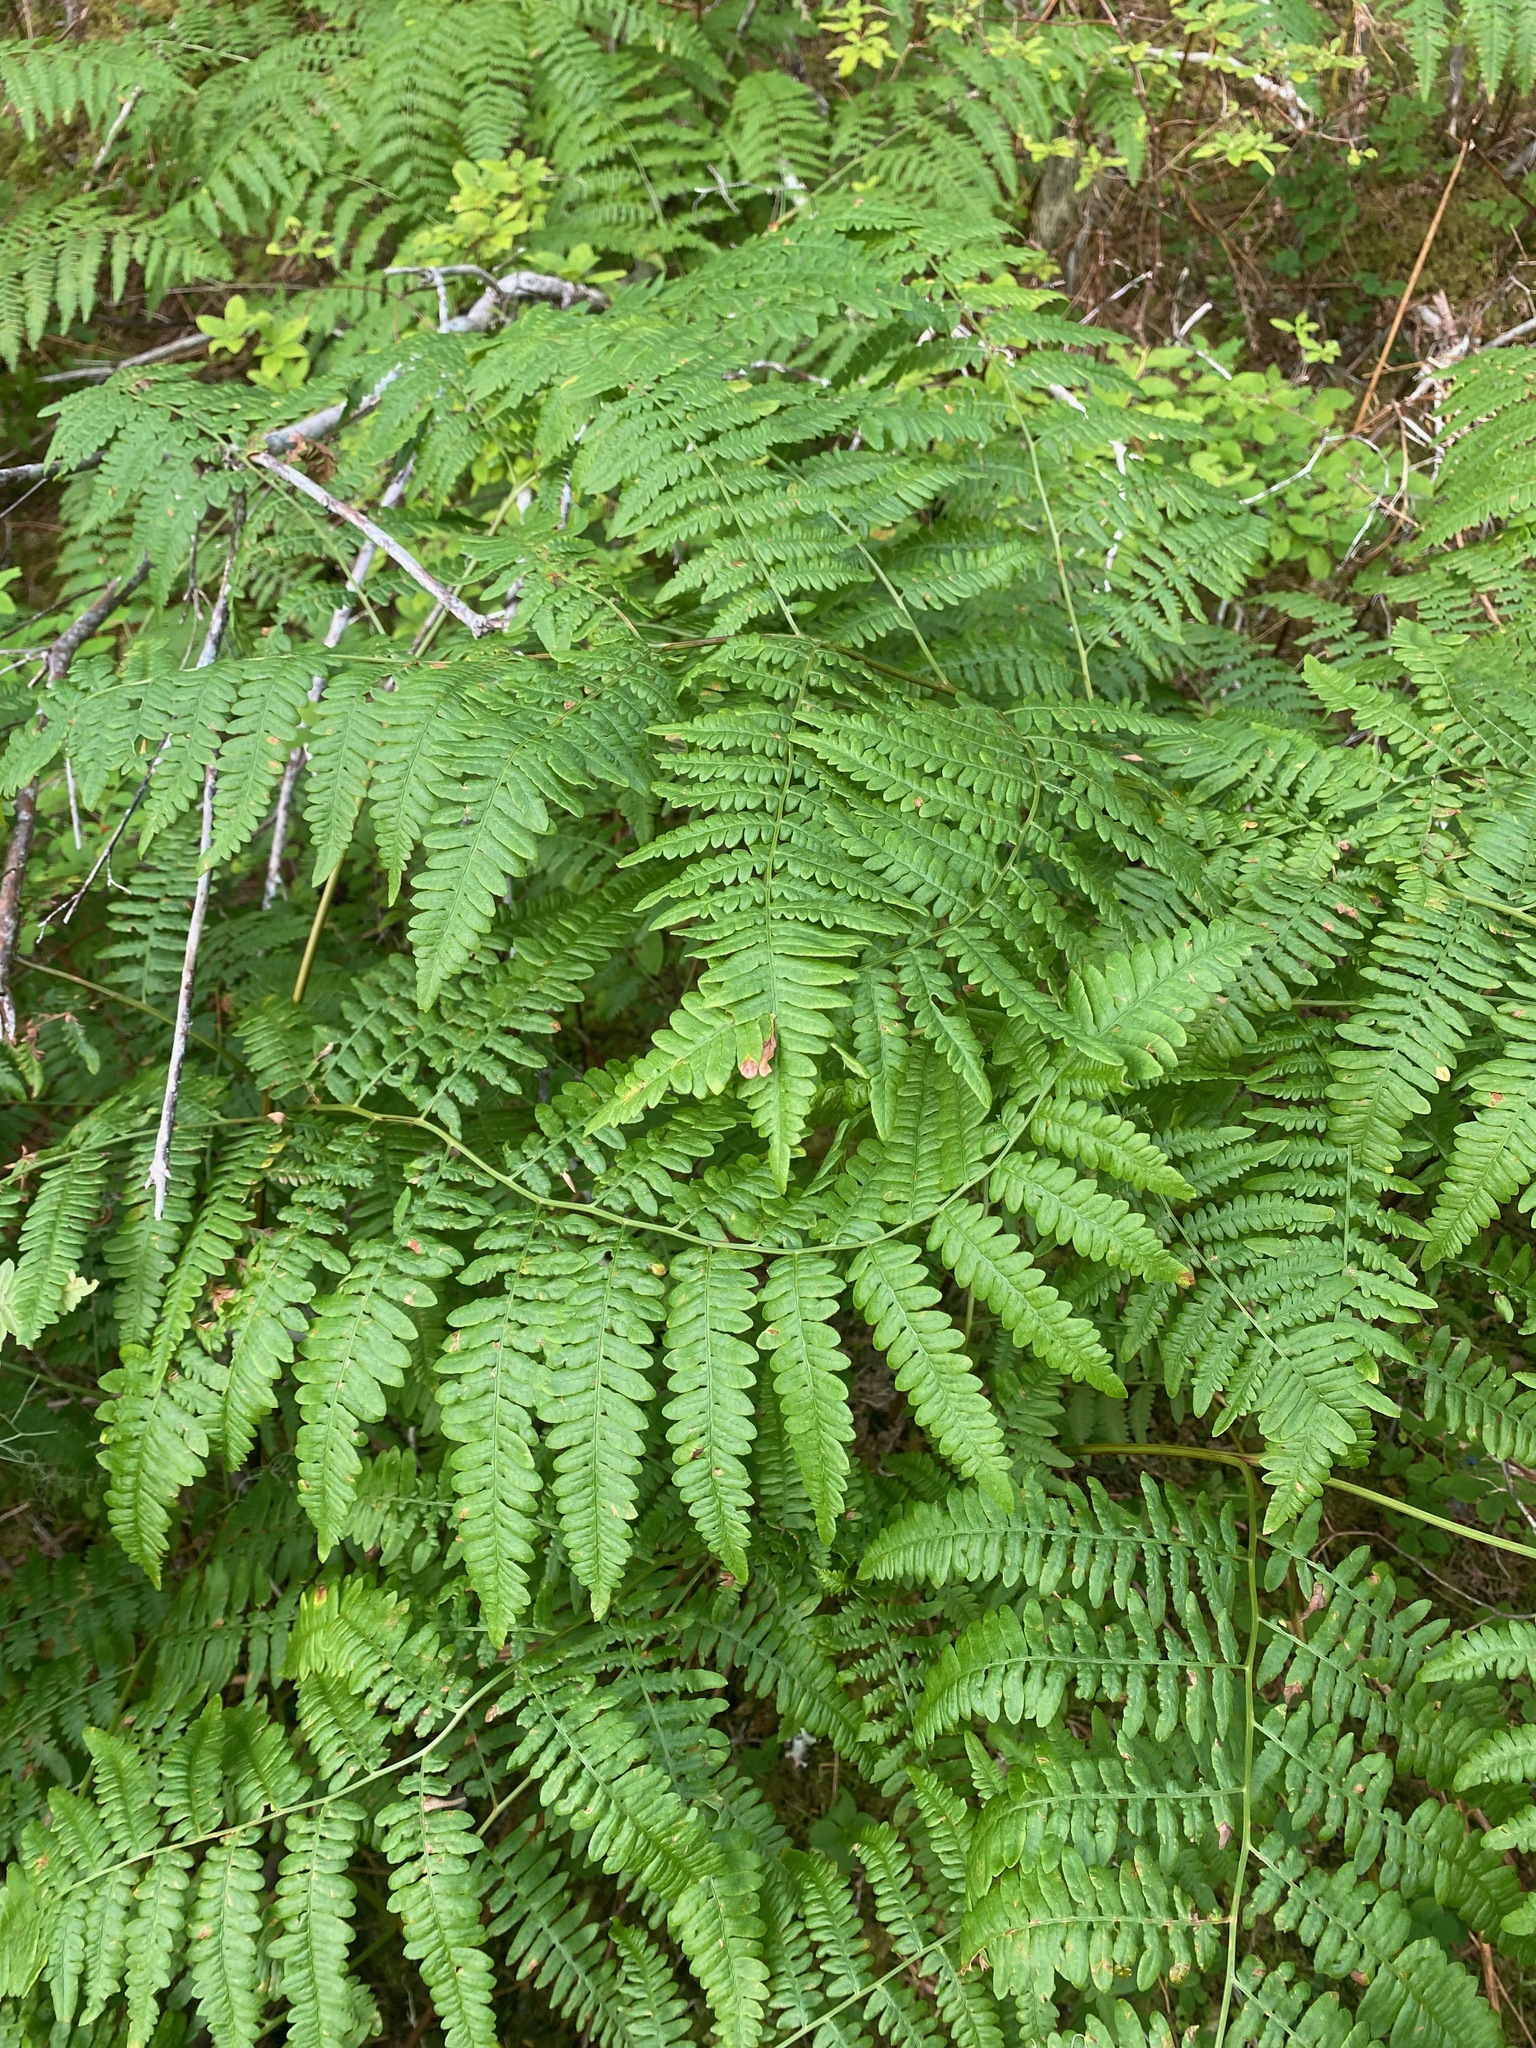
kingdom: Plantae
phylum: Tracheophyta
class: Polypodiopsida
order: Polypodiales
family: Dennstaedtiaceae
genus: Pteridium
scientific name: Pteridium aquilinum
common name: Bracken
